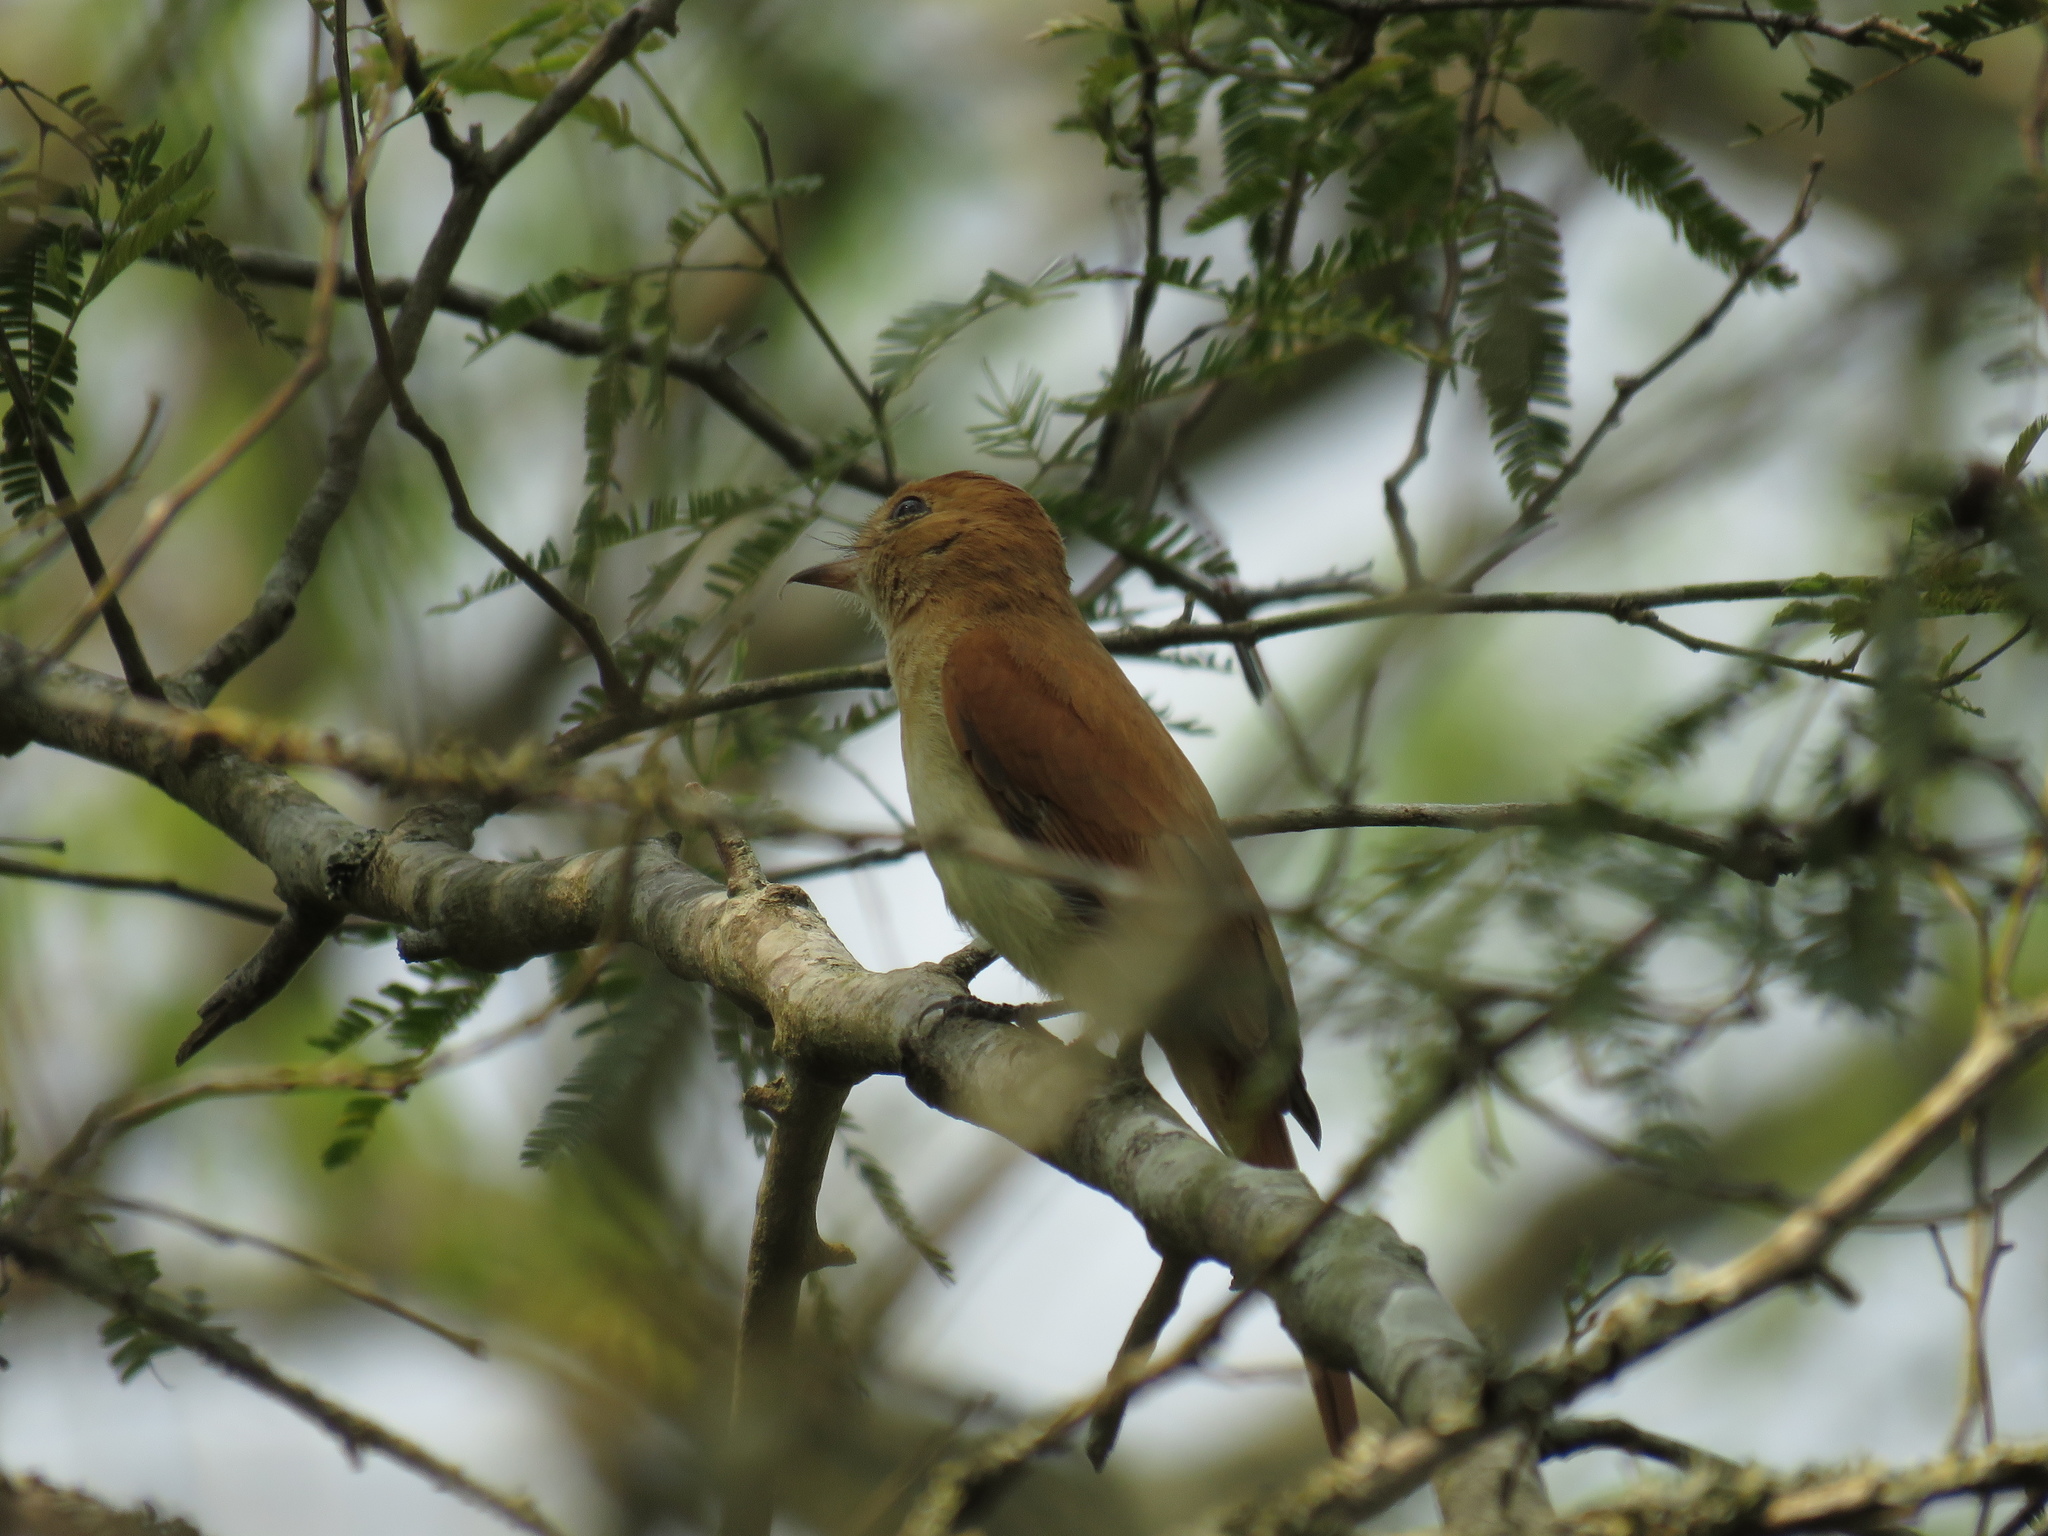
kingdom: Animalia
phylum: Chordata
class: Aves
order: Passeriformes
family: Tyrannidae
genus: Casiornis
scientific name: Casiornis rufus
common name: Rufous casiornis
